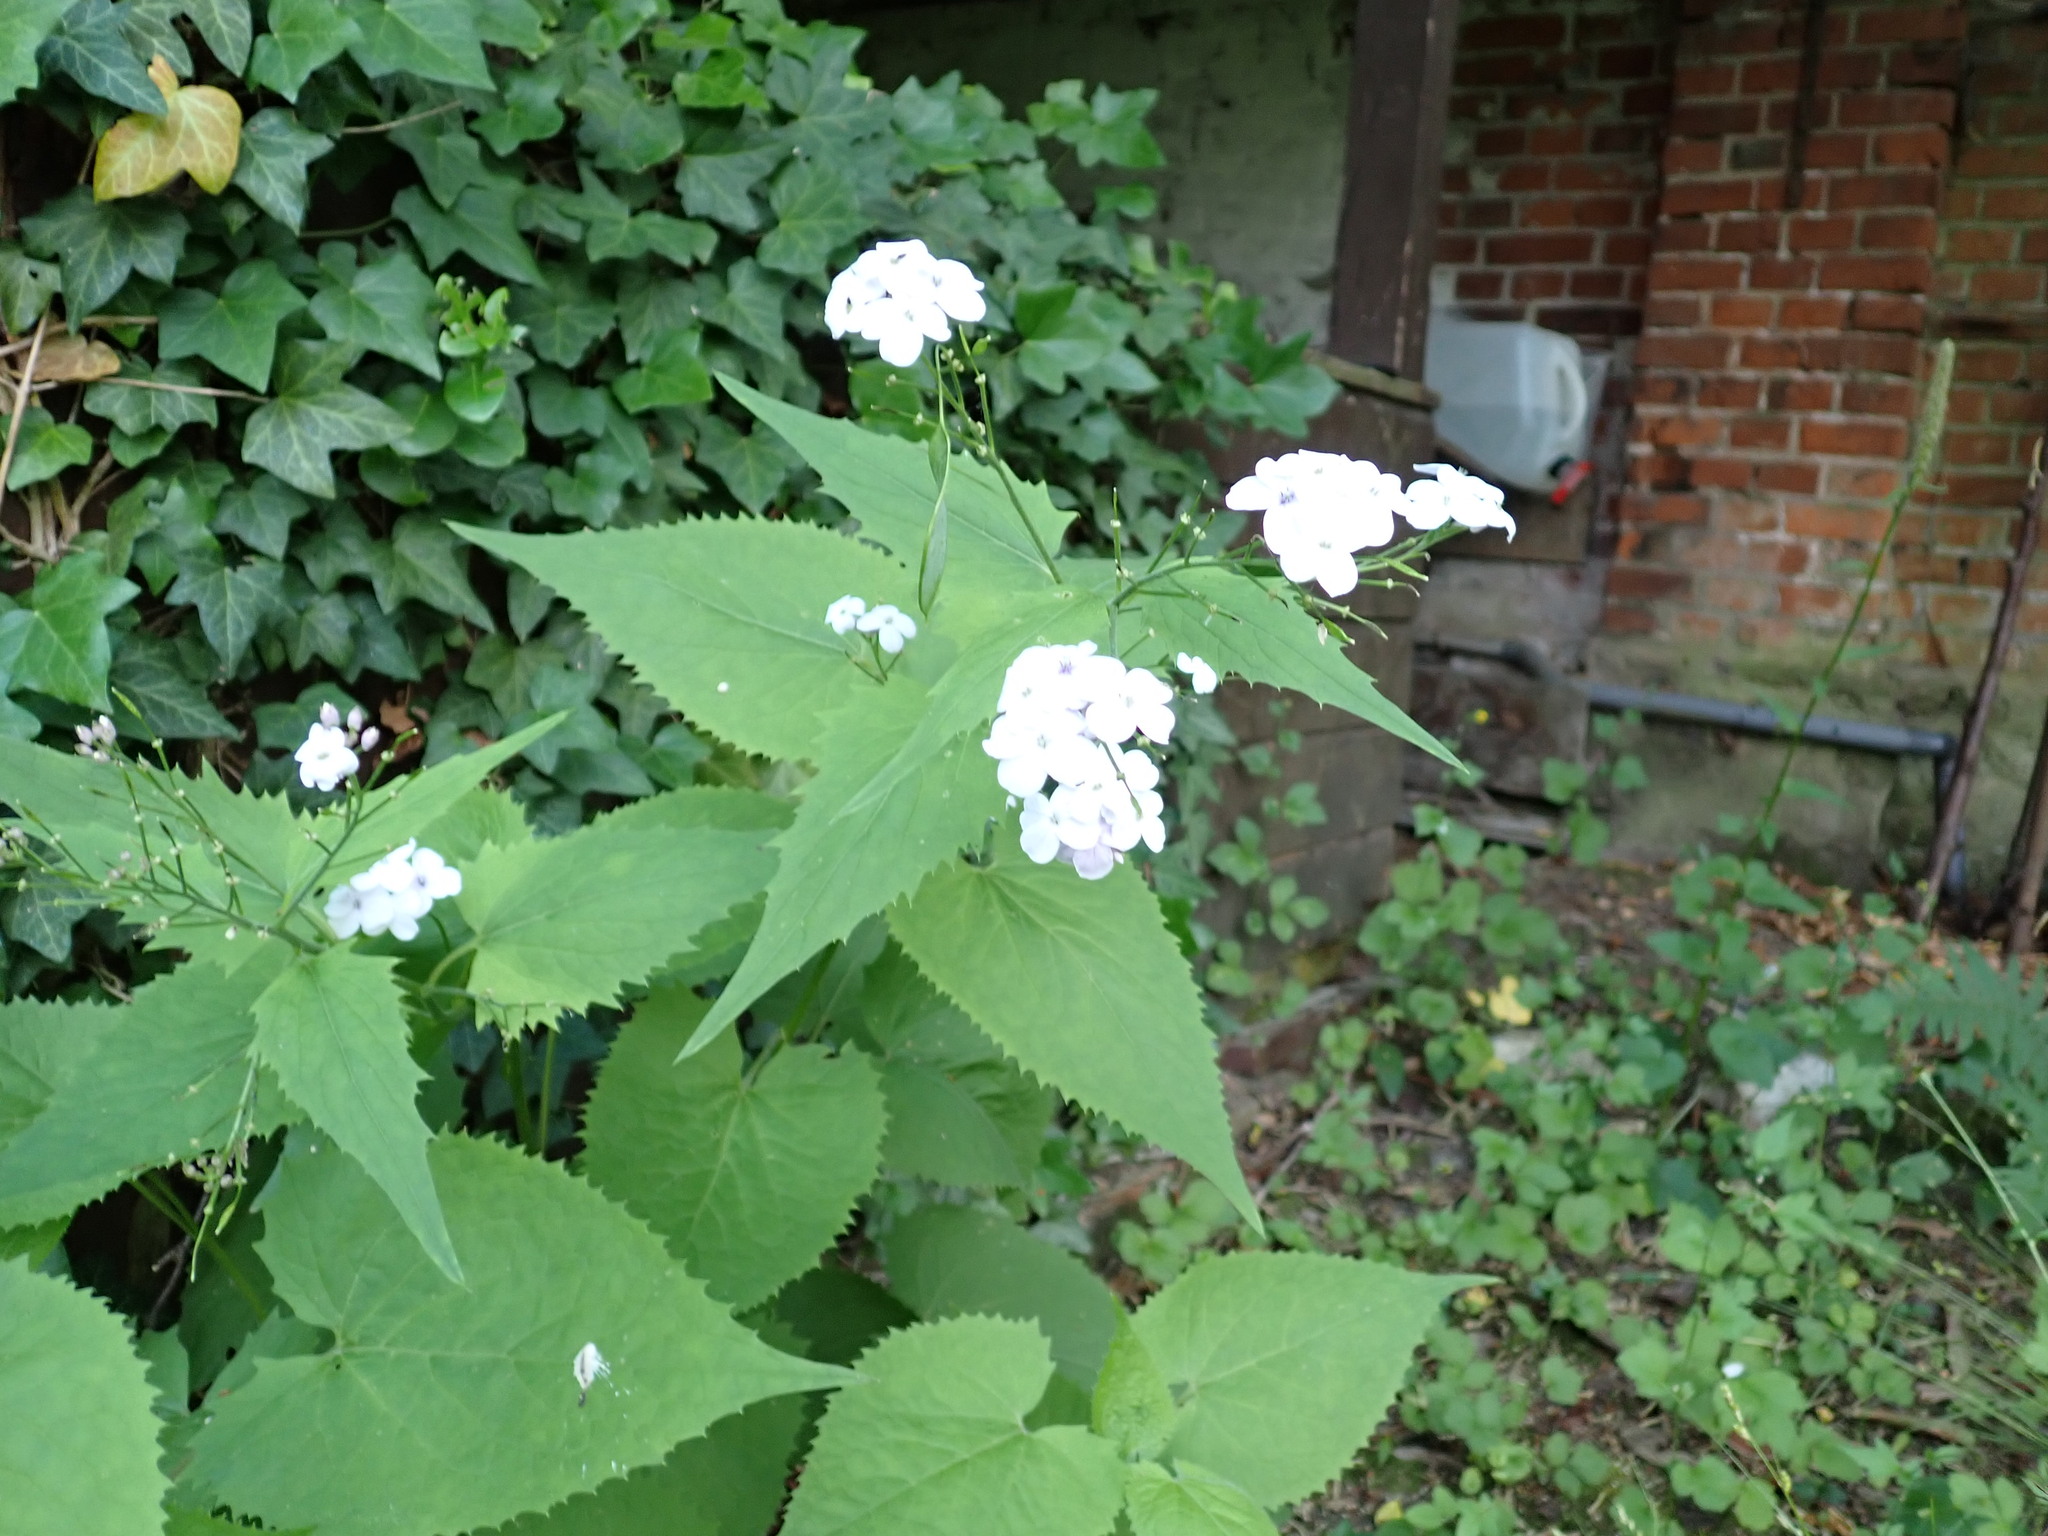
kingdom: Plantae
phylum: Tracheophyta
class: Magnoliopsida
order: Brassicales
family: Brassicaceae
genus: Lunaria
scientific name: Lunaria rediviva
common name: Perennial honesty
